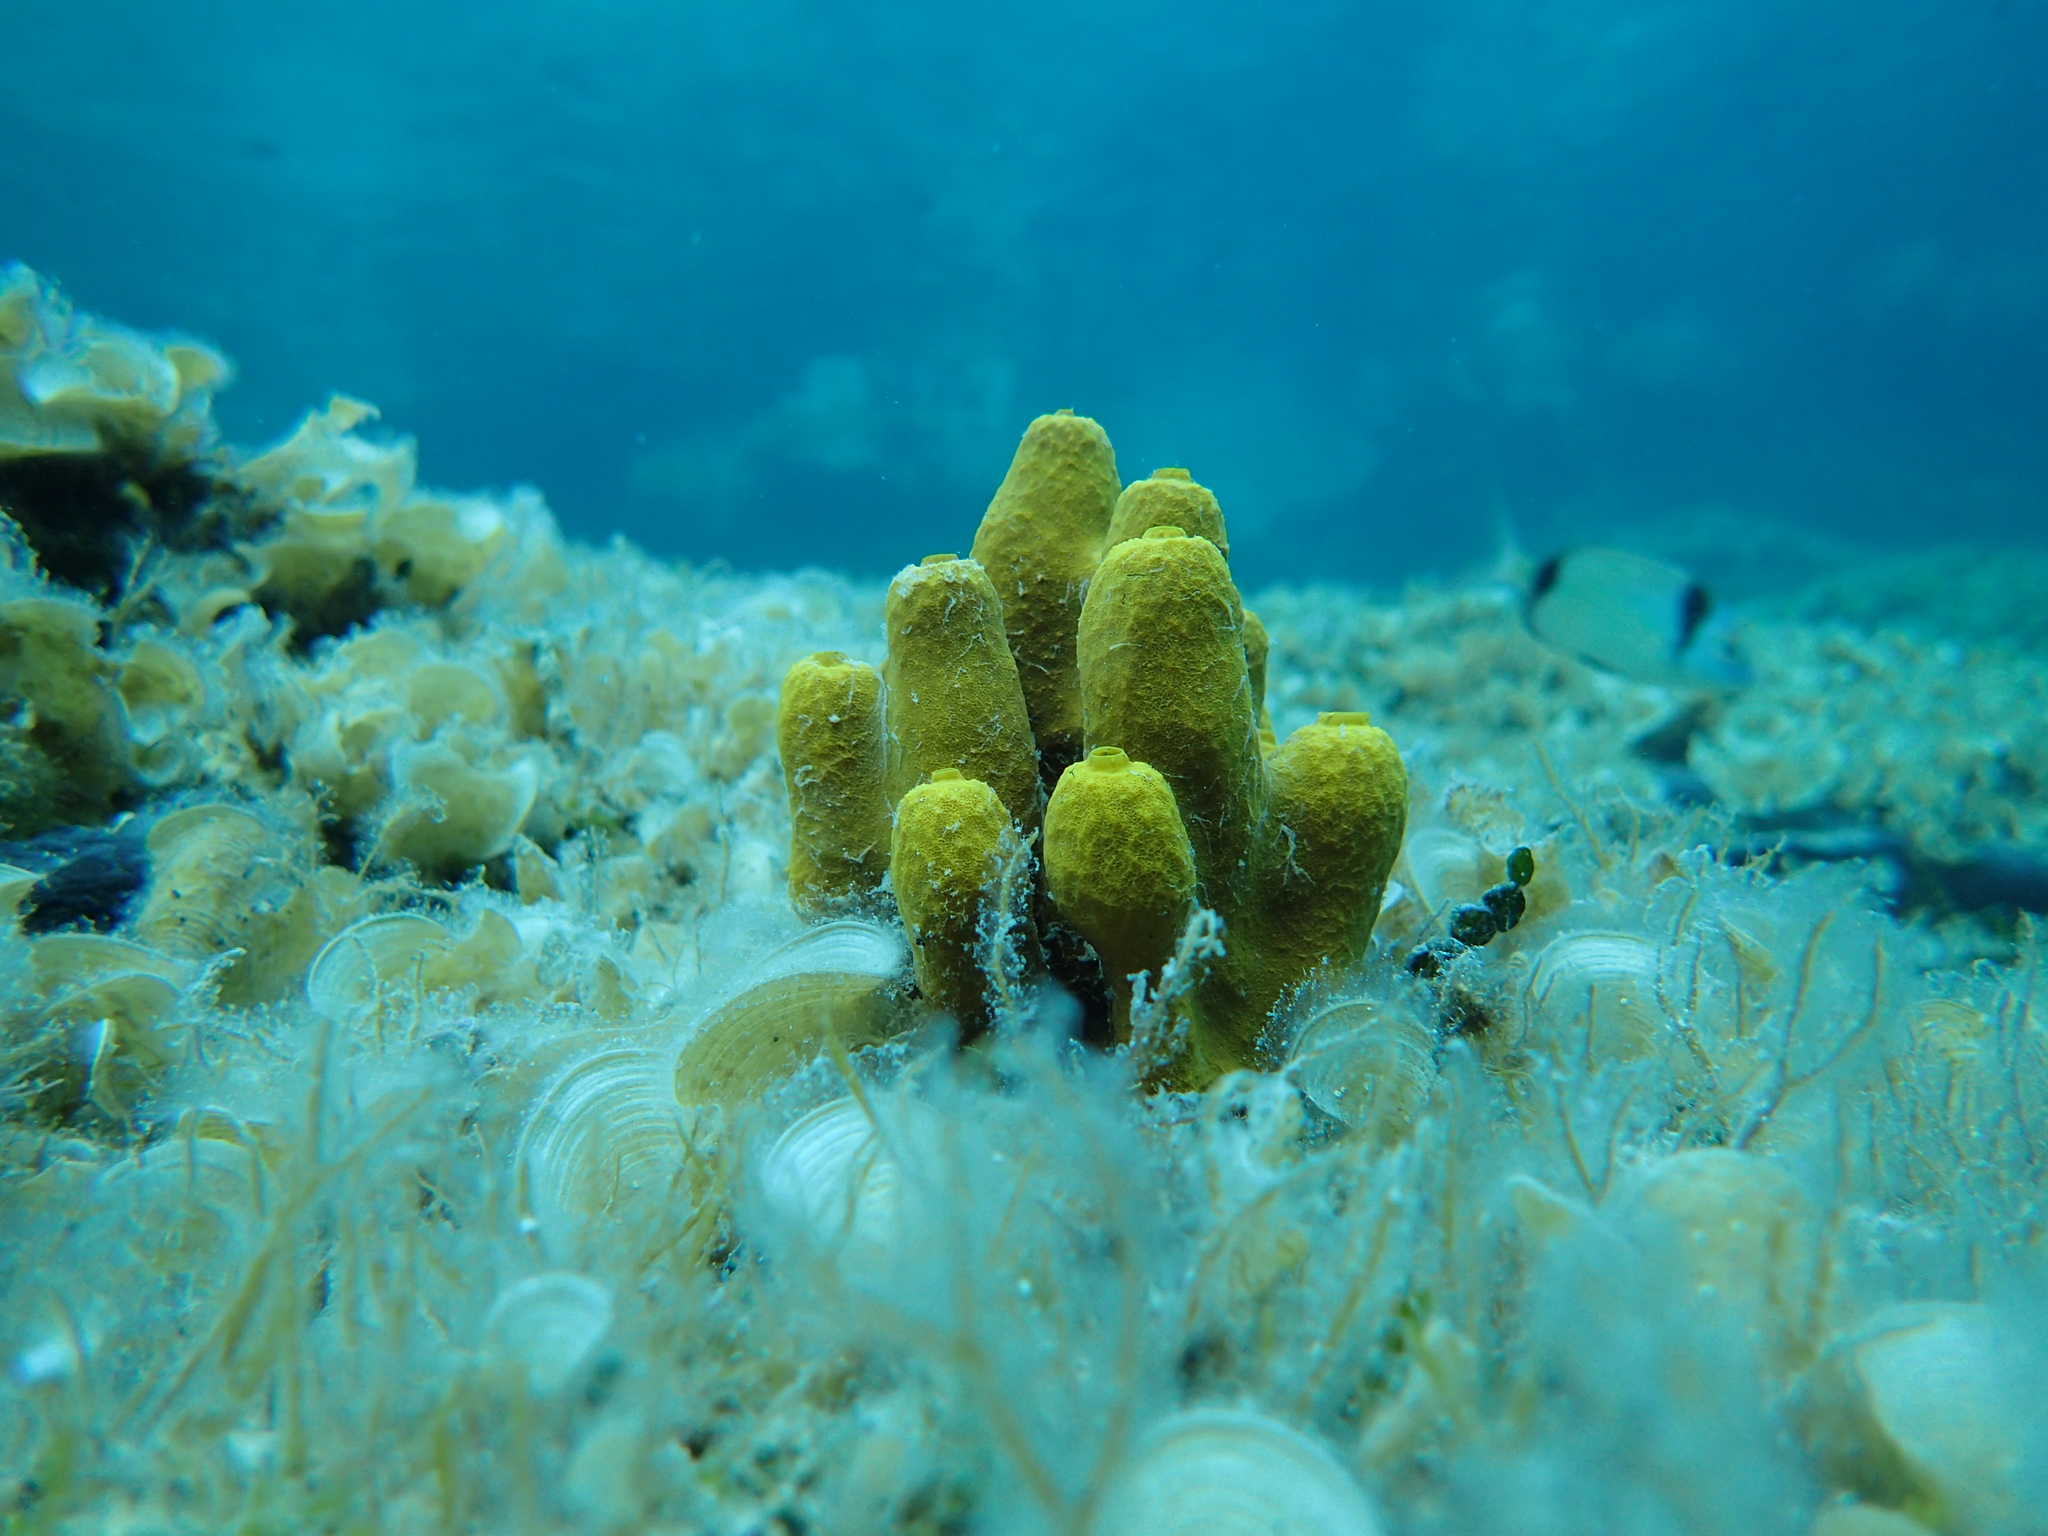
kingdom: Animalia
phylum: Porifera
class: Demospongiae
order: Verongiida
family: Aplysinidae
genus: Aplysina
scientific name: Aplysina aerophoba
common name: Aureate sponge
